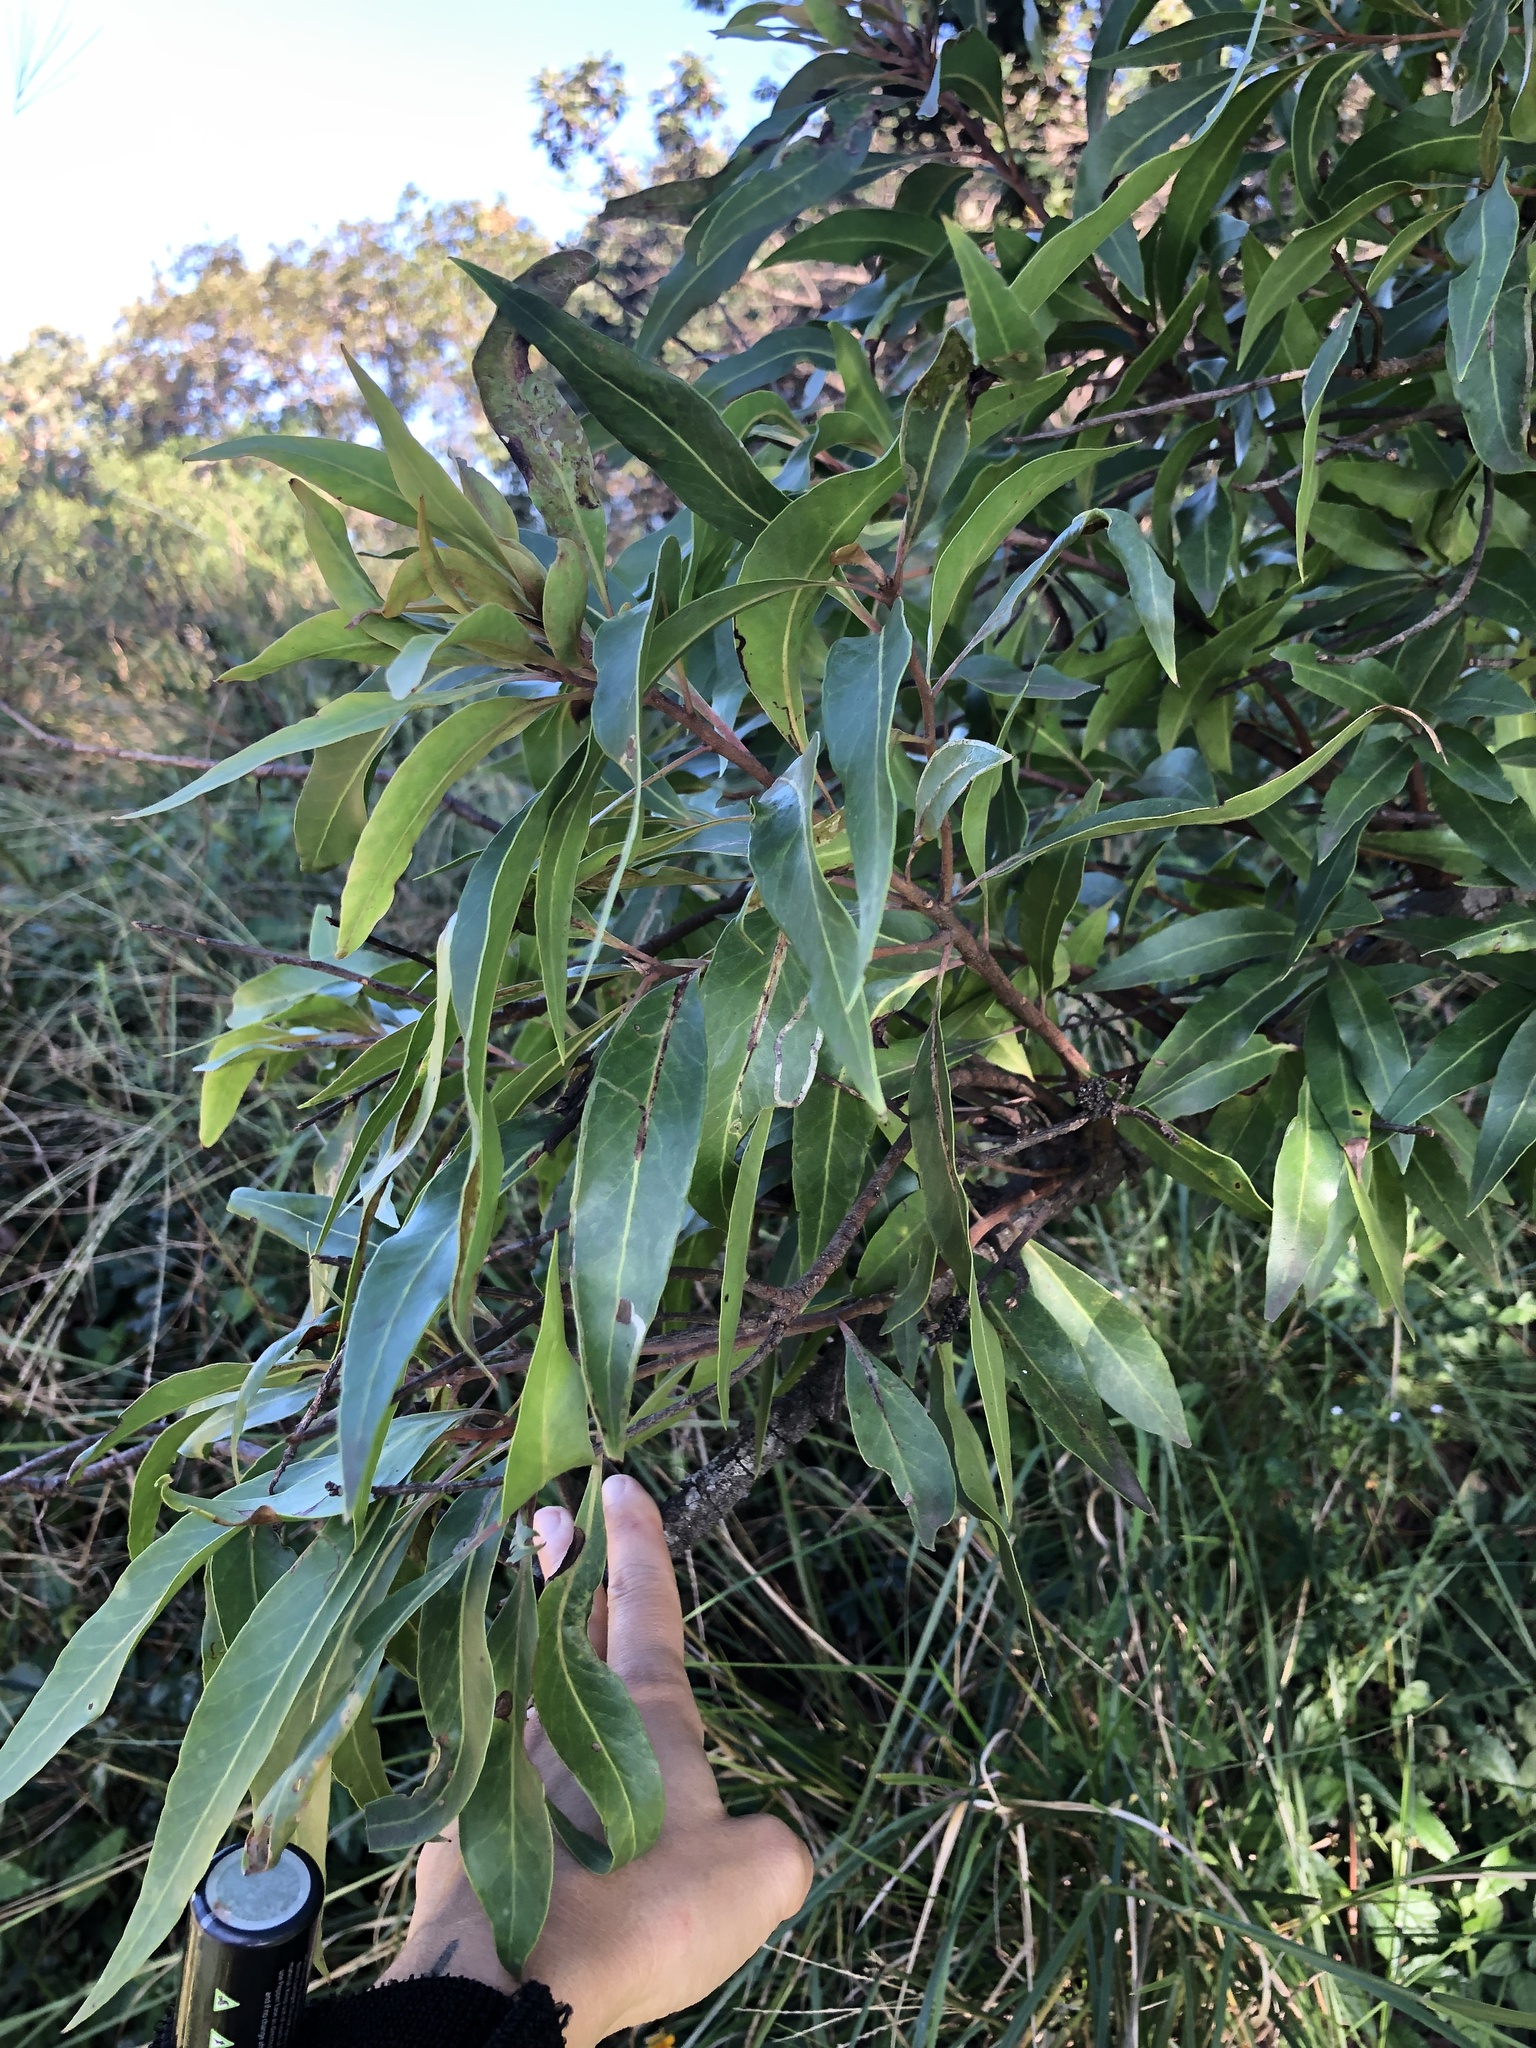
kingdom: Plantae
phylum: Tracheophyta
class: Magnoliopsida
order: Proteales
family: Proteaceae
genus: Faurea
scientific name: Faurea saligna
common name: African bean
